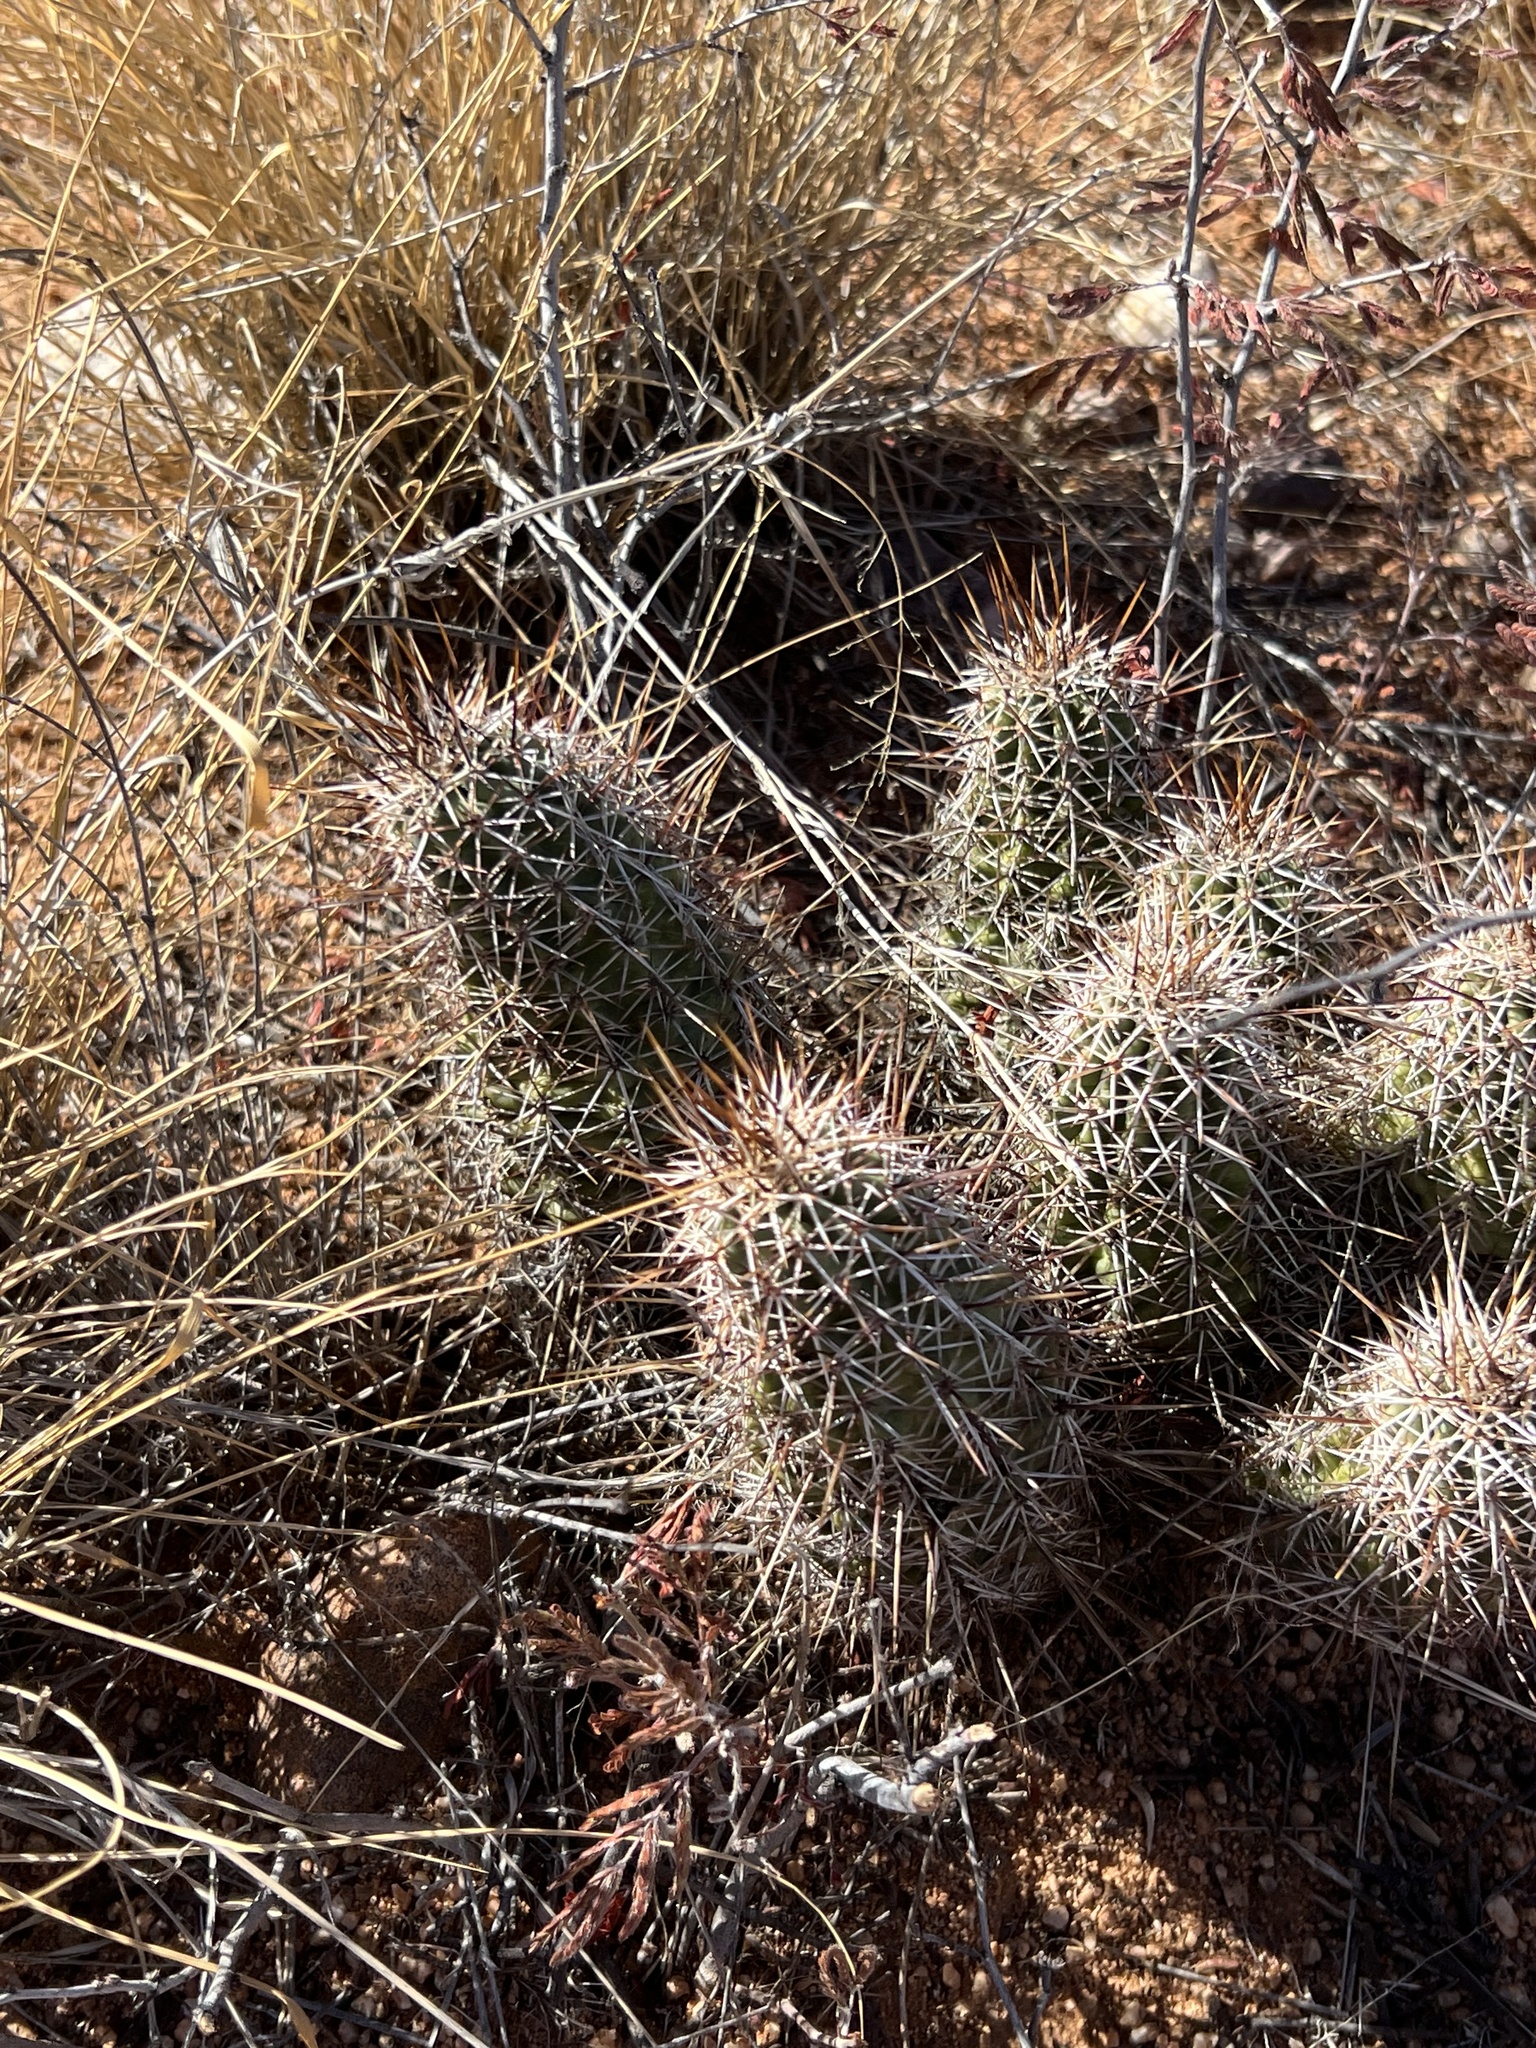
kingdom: Plantae
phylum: Tracheophyta
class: Magnoliopsida
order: Caryophyllales
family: Cactaceae
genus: Echinocereus
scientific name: Echinocereus fasciculatus
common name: Bundle hedgehog
